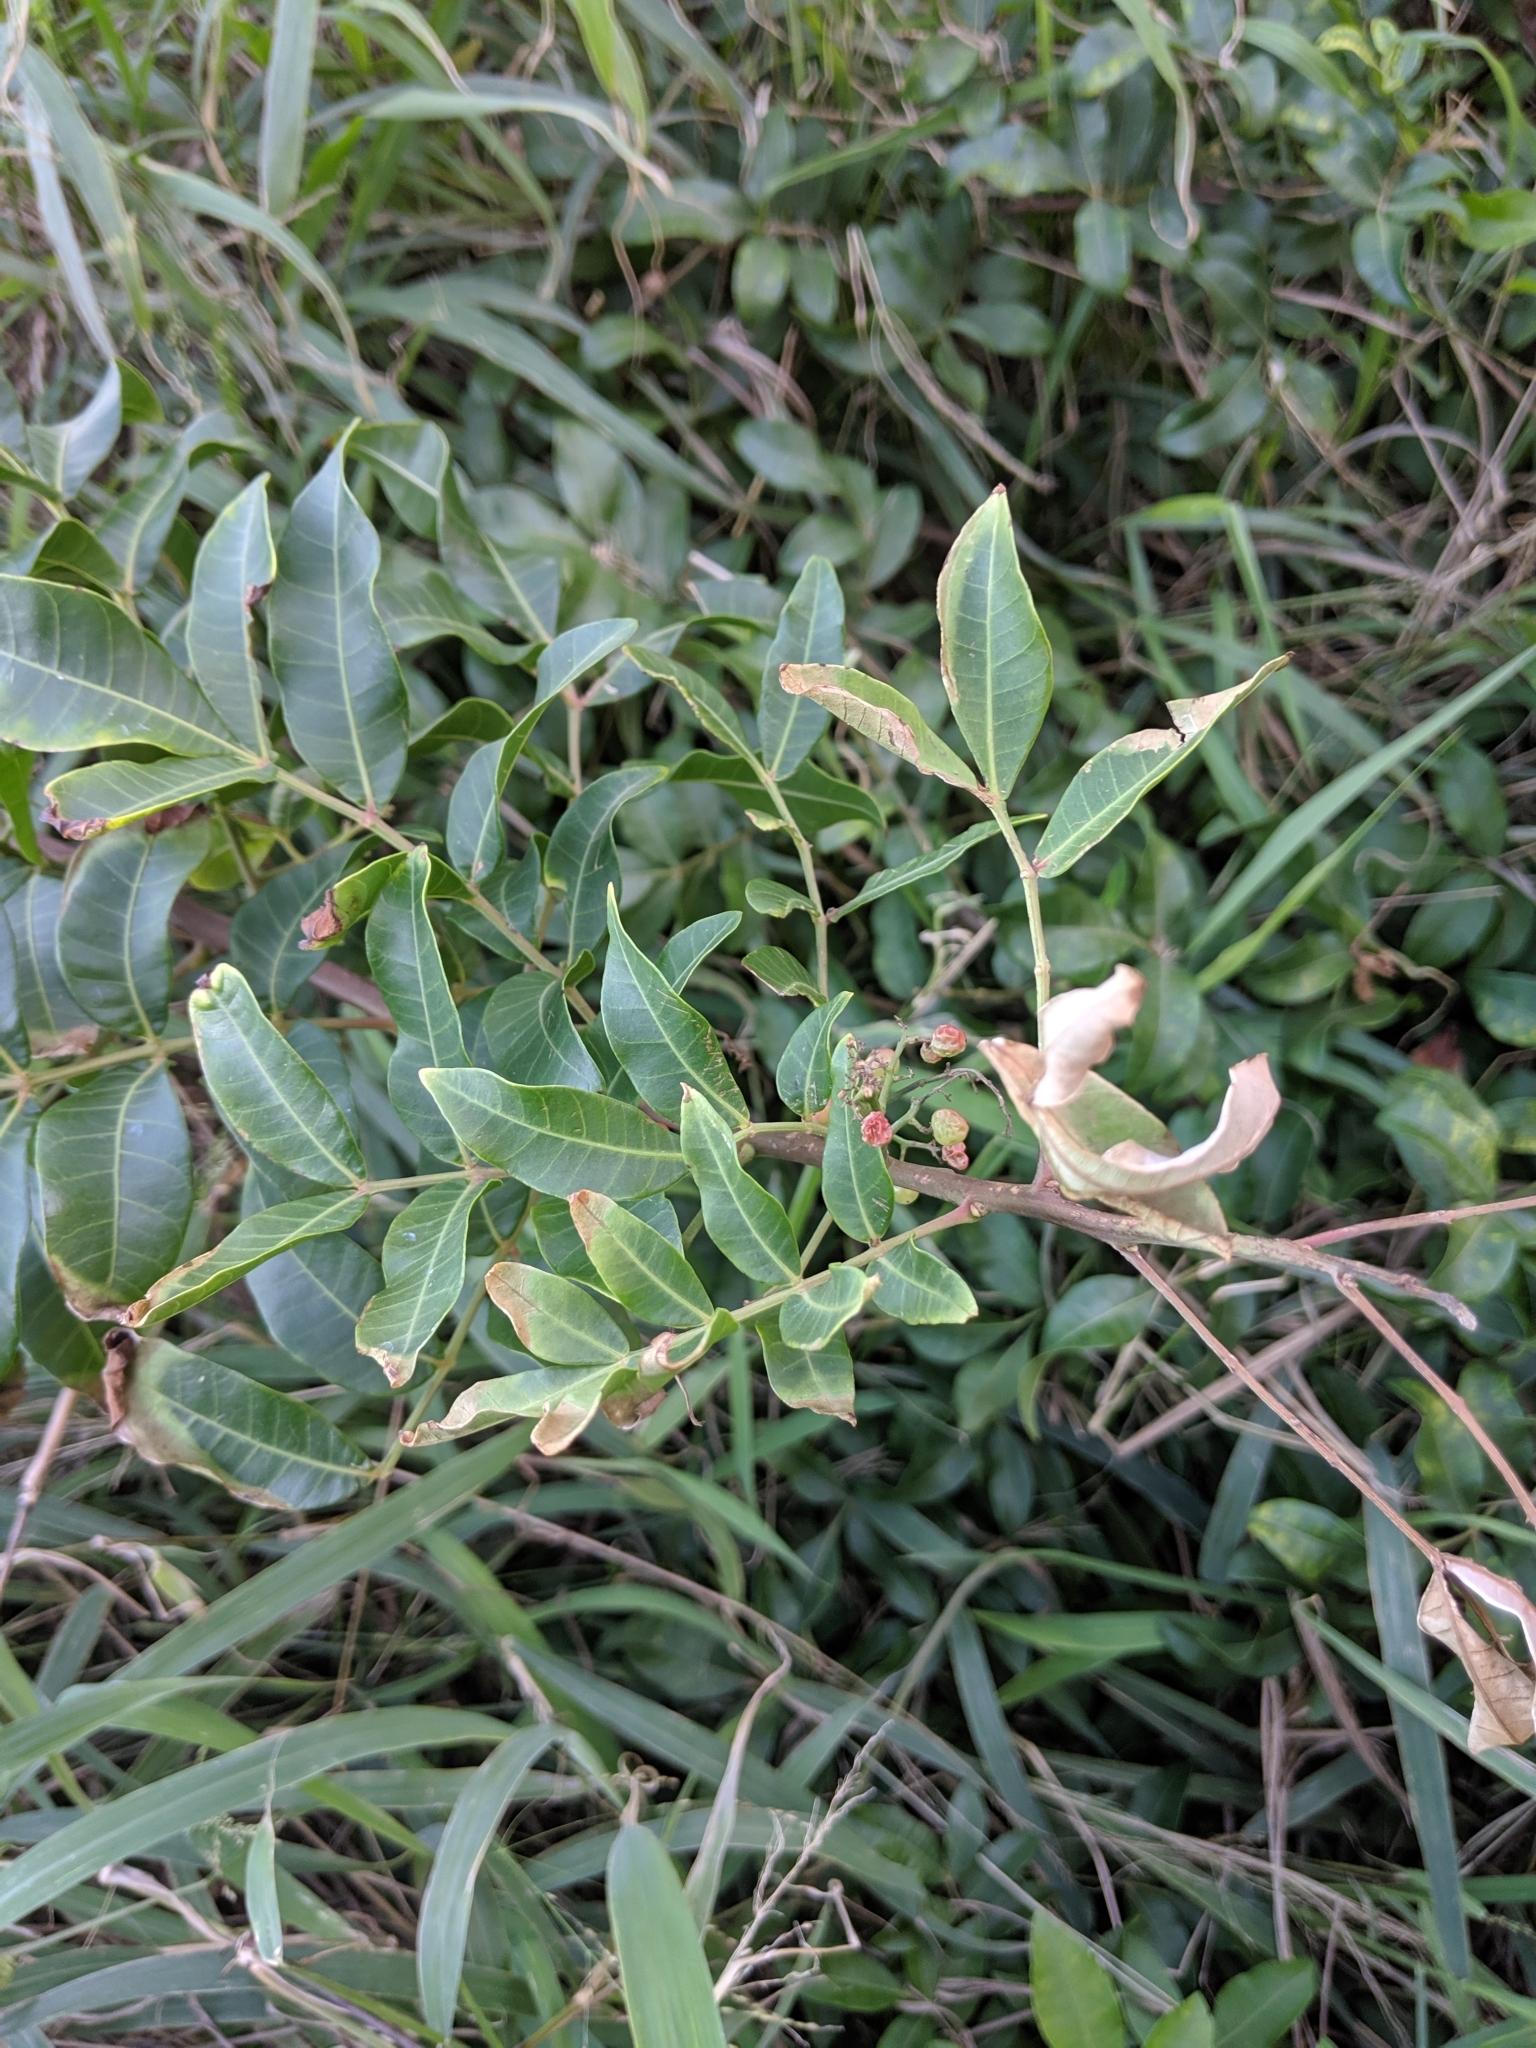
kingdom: Plantae
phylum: Tracheophyta
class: Magnoliopsida
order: Sapindales
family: Anacardiaceae
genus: Schinus
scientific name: Schinus terebinthifolia
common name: Brazilian peppertree
